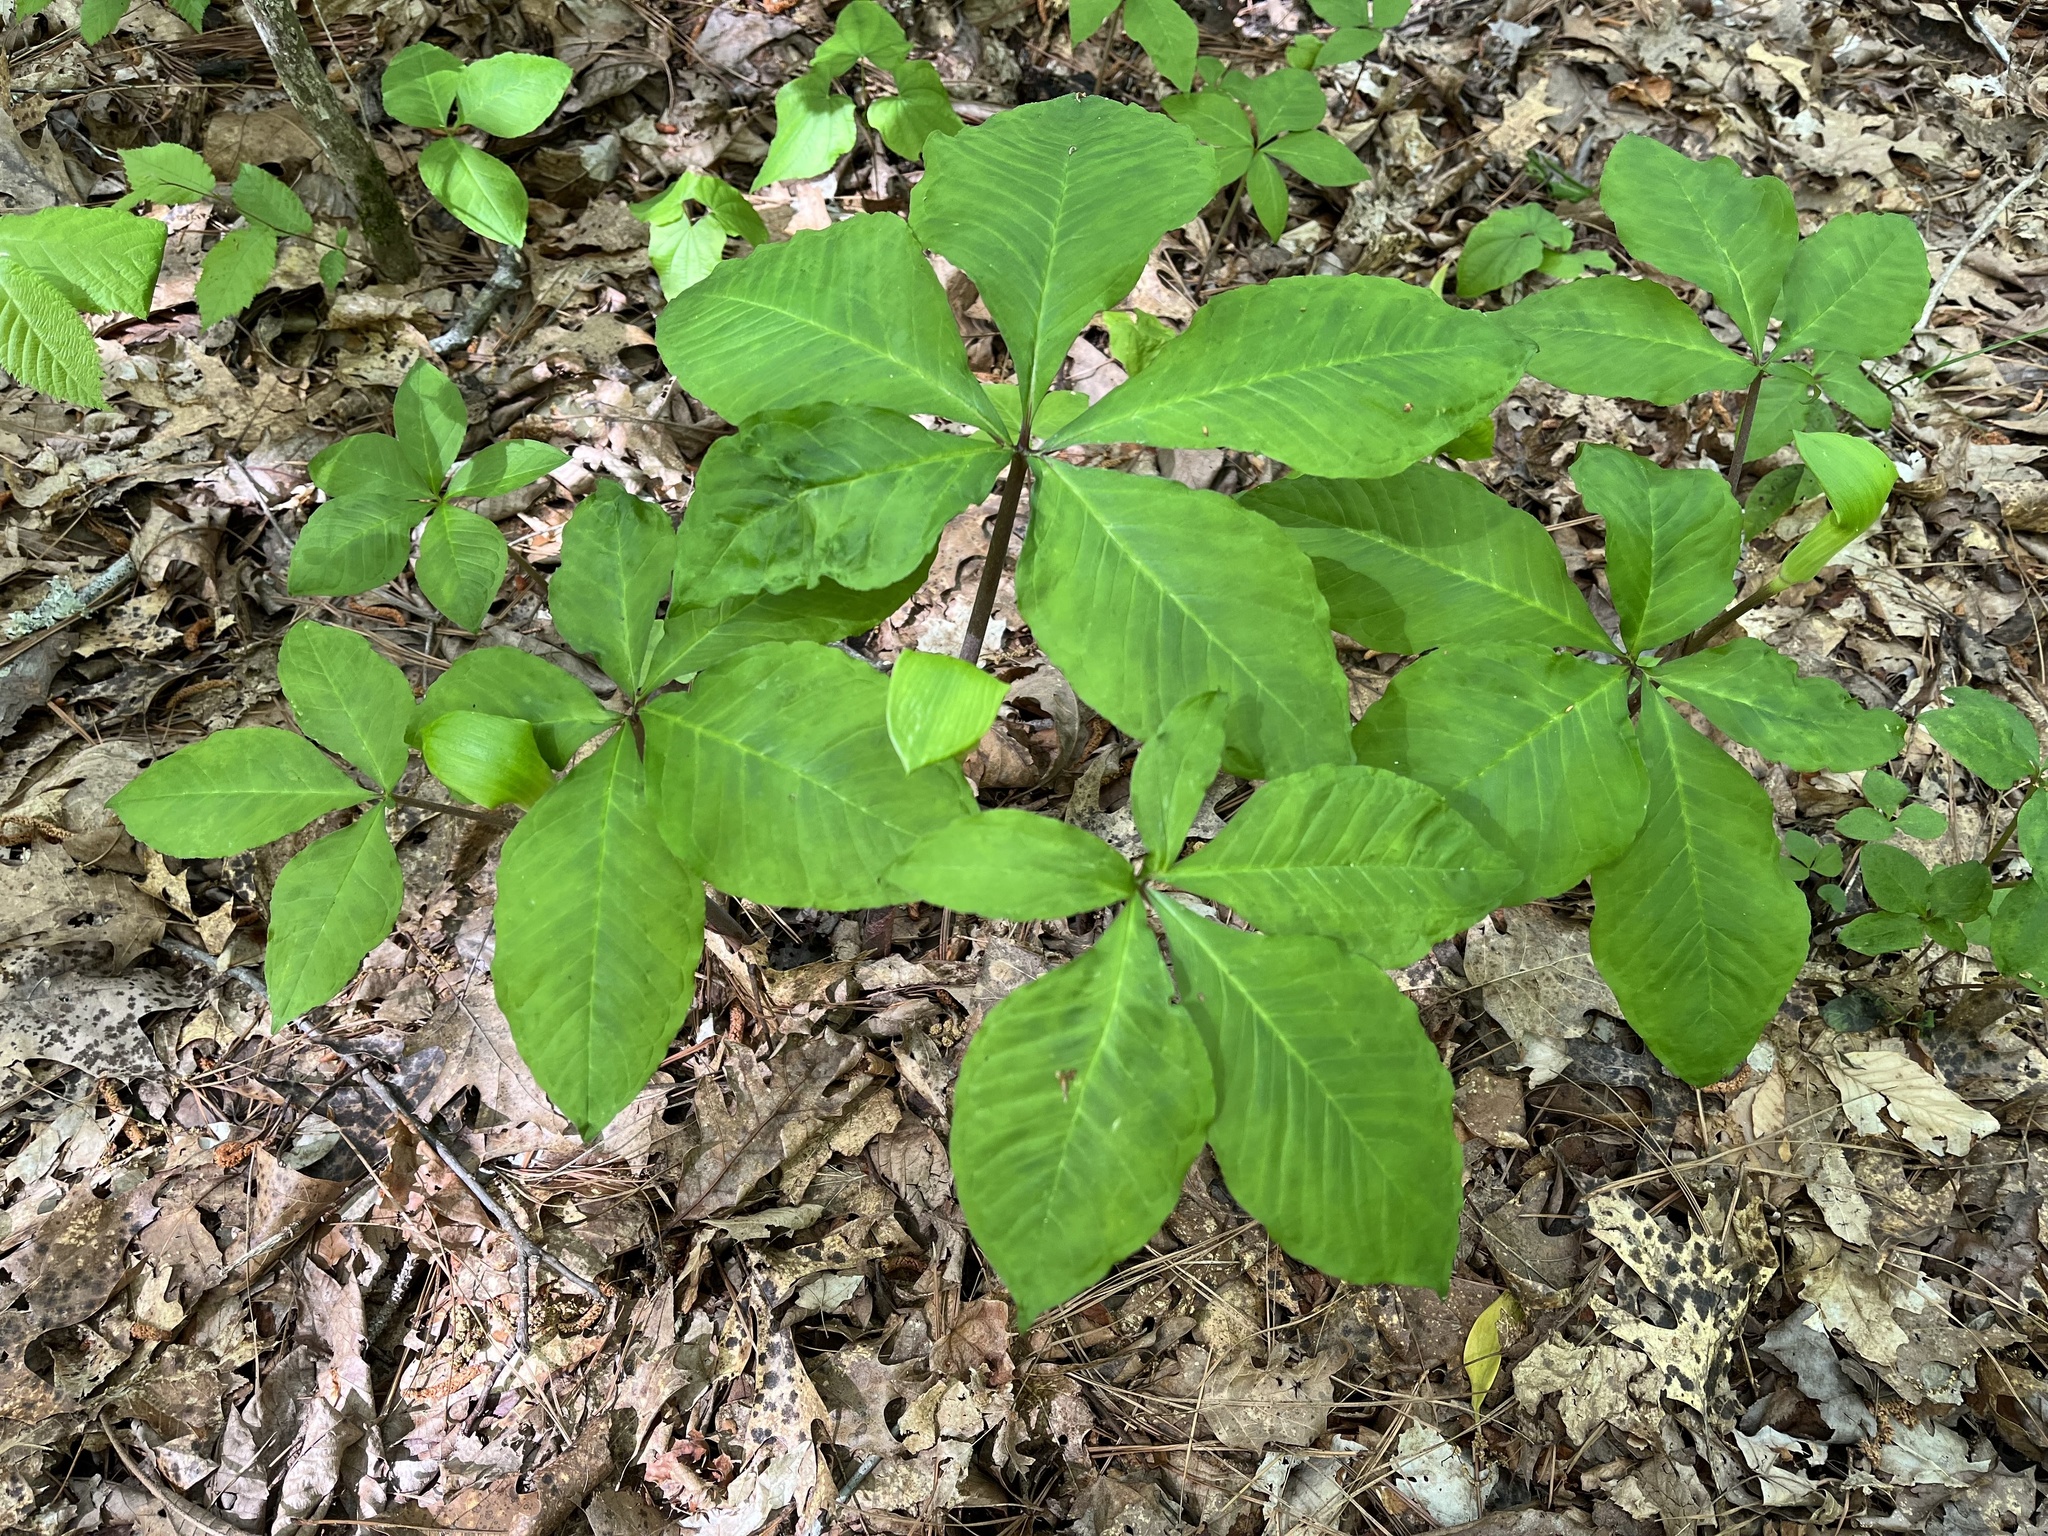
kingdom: Plantae
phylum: Tracheophyta
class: Liliopsida
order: Alismatales
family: Araceae
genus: Arisaema
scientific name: Arisaema quinatum
